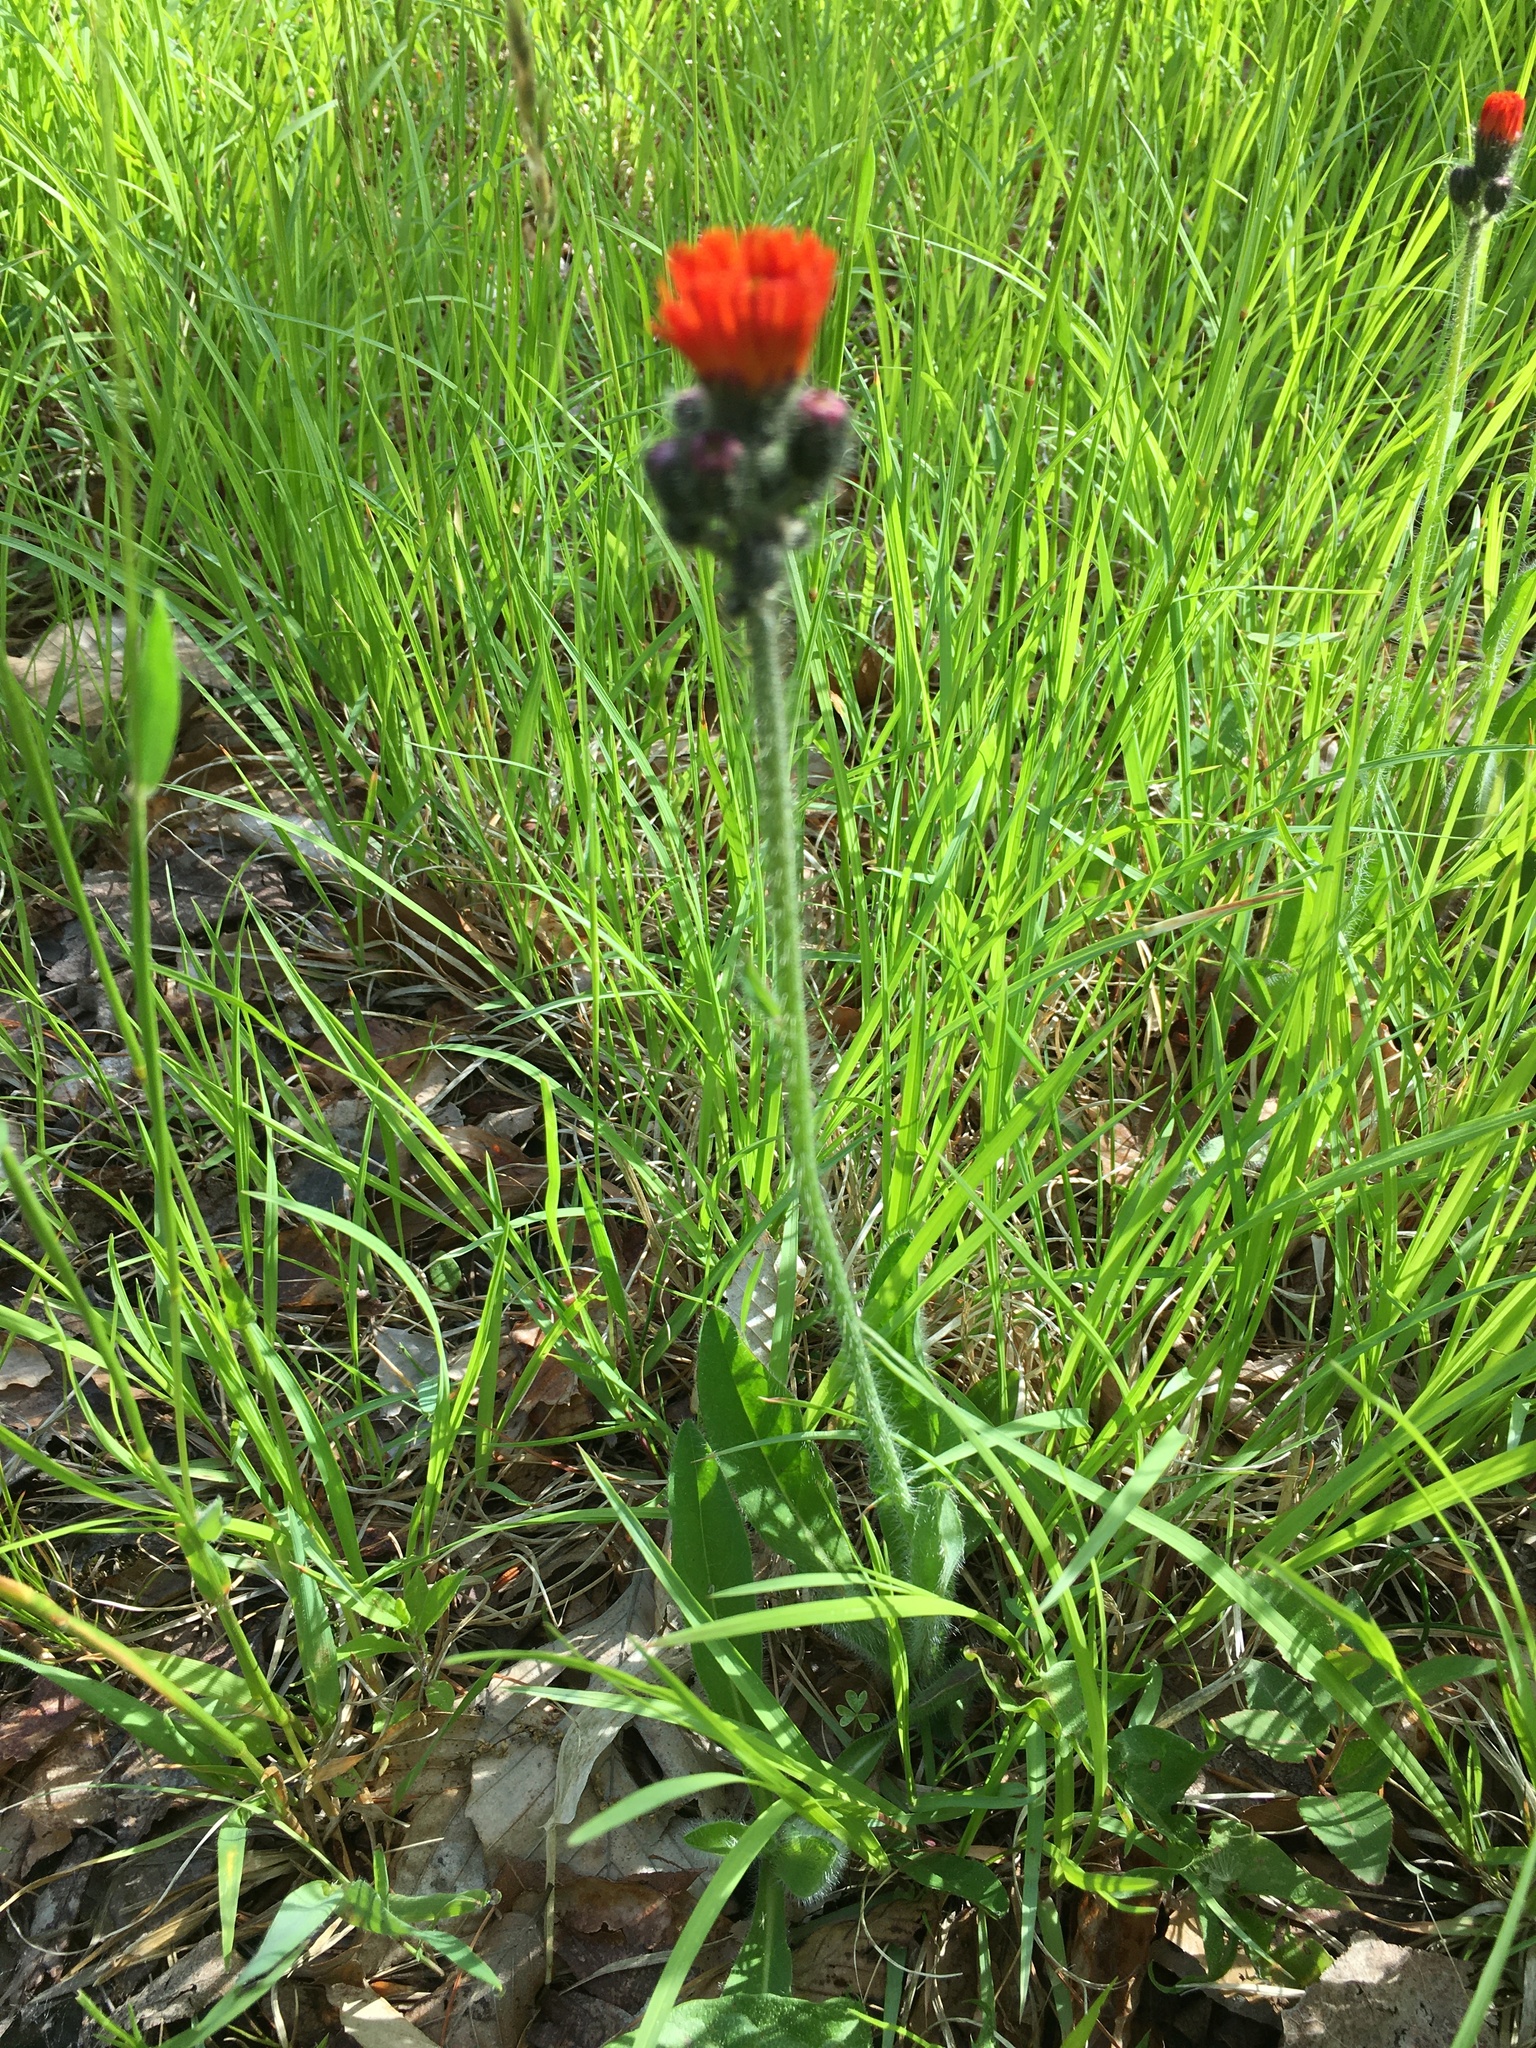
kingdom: Plantae
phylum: Tracheophyta
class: Magnoliopsida
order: Asterales
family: Asteraceae
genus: Pilosella
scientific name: Pilosella aurantiaca
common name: Fox-and-cubs
